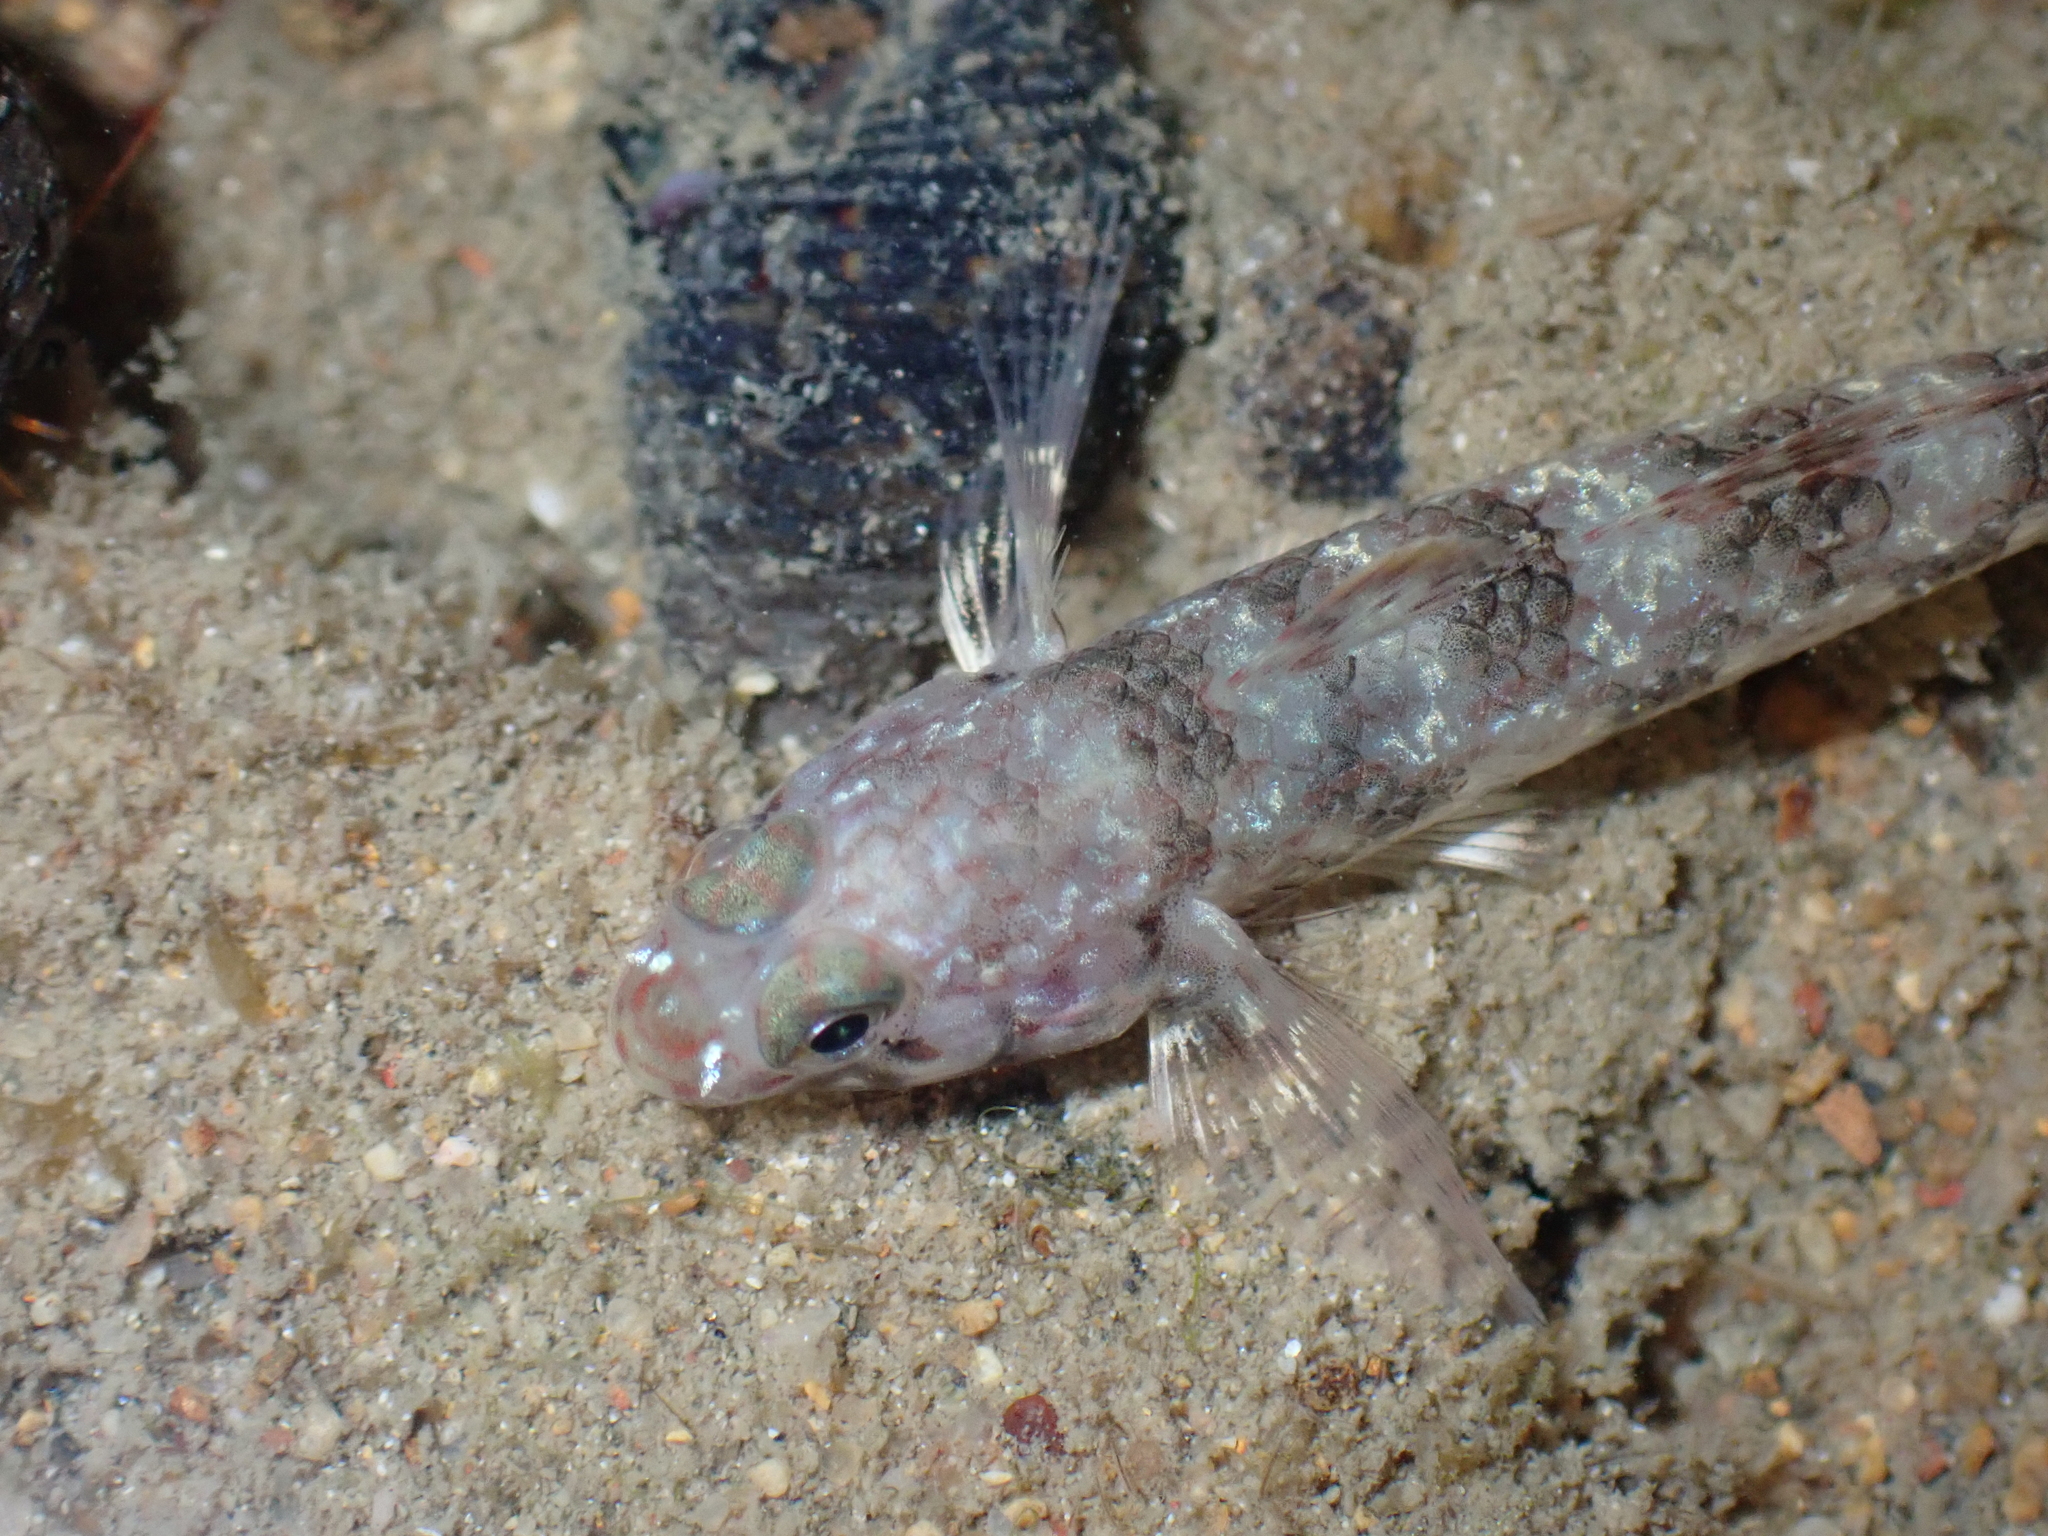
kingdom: Animalia
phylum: Chordata
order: Perciformes
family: Gobiidae
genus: Istigobius
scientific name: Istigobius ornatus
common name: Ornate goby
